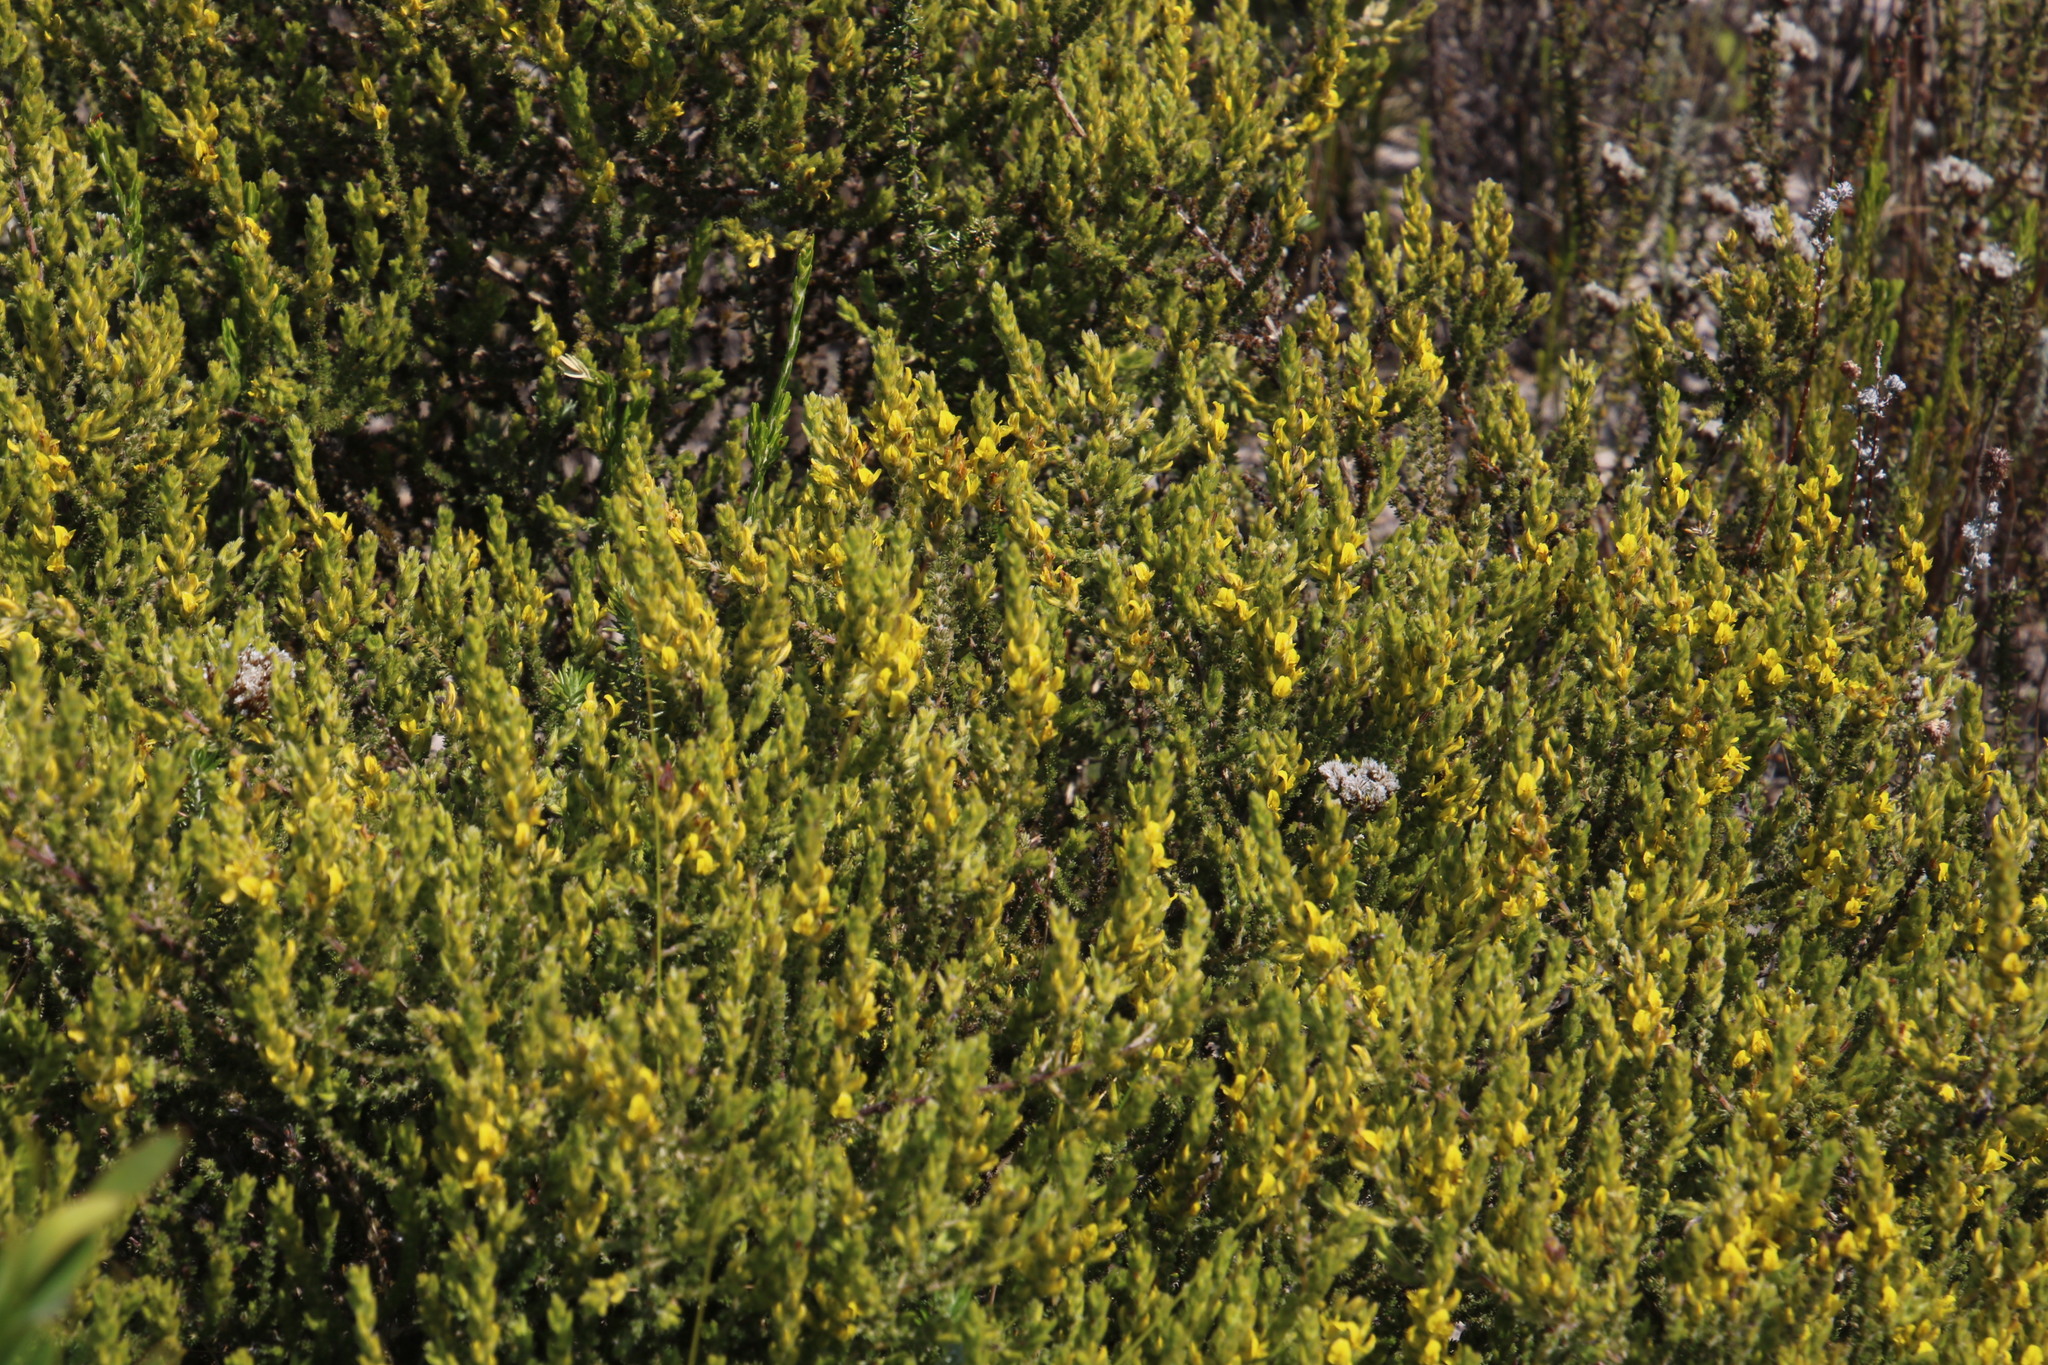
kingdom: Plantae
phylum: Tracheophyta
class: Magnoliopsida
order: Fabales
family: Fabaceae
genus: Aspalathus
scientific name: Aspalathus ericifolia
